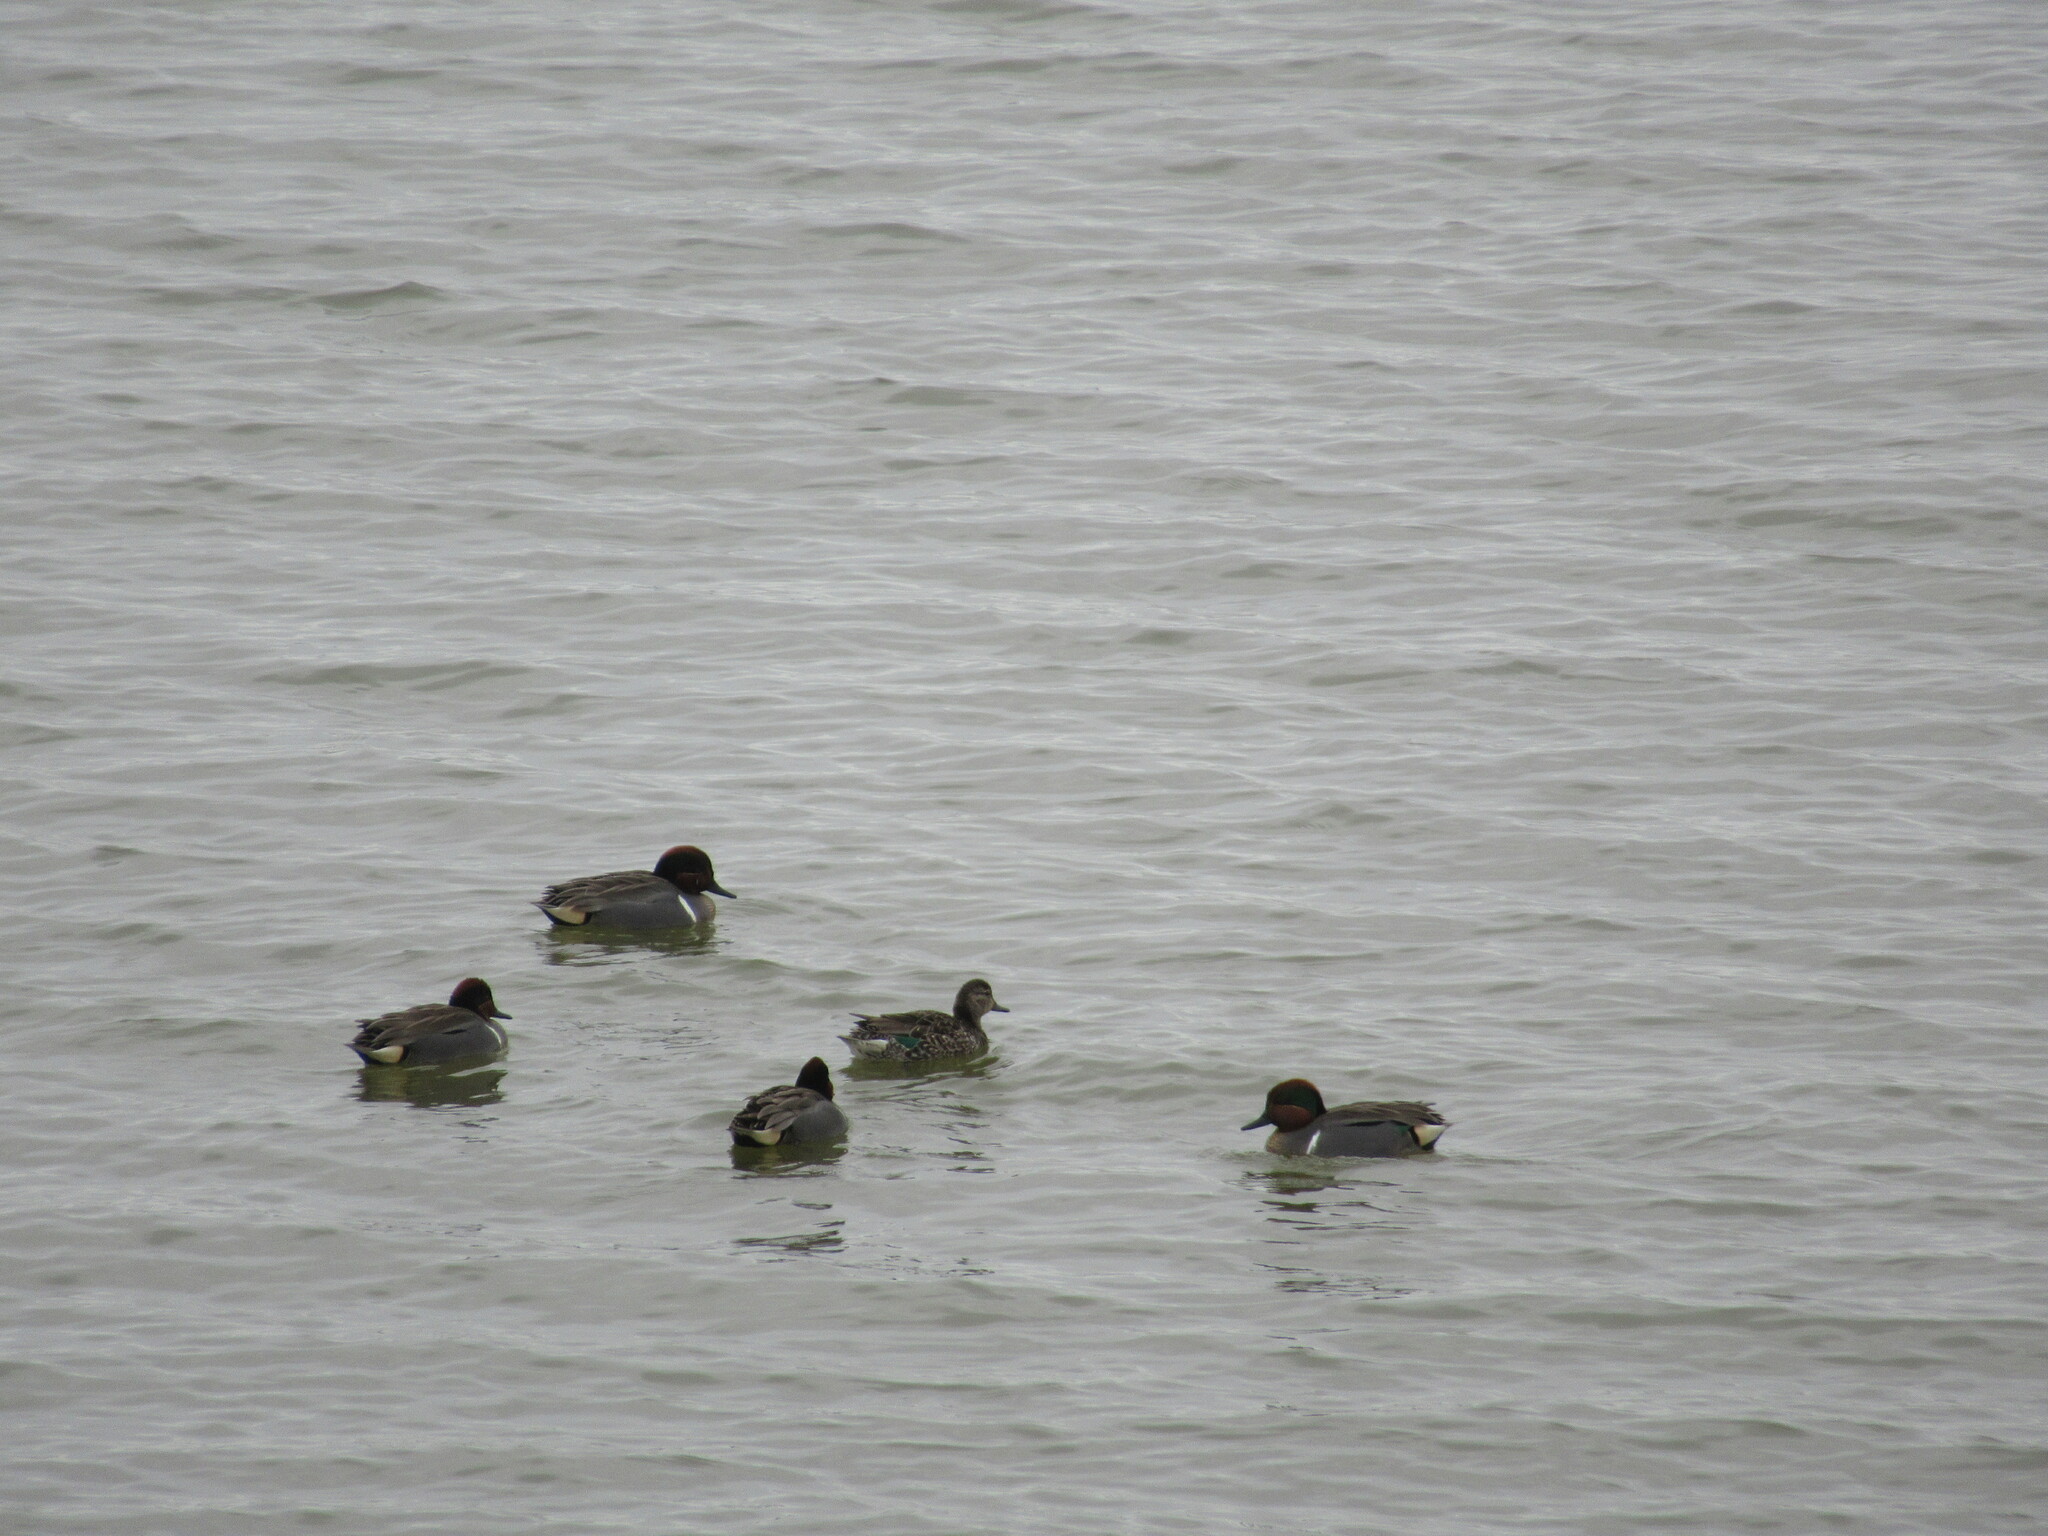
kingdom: Animalia
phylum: Chordata
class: Aves
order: Anseriformes
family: Anatidae
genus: Anas
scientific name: Anas crecca
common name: Eurasian teal
